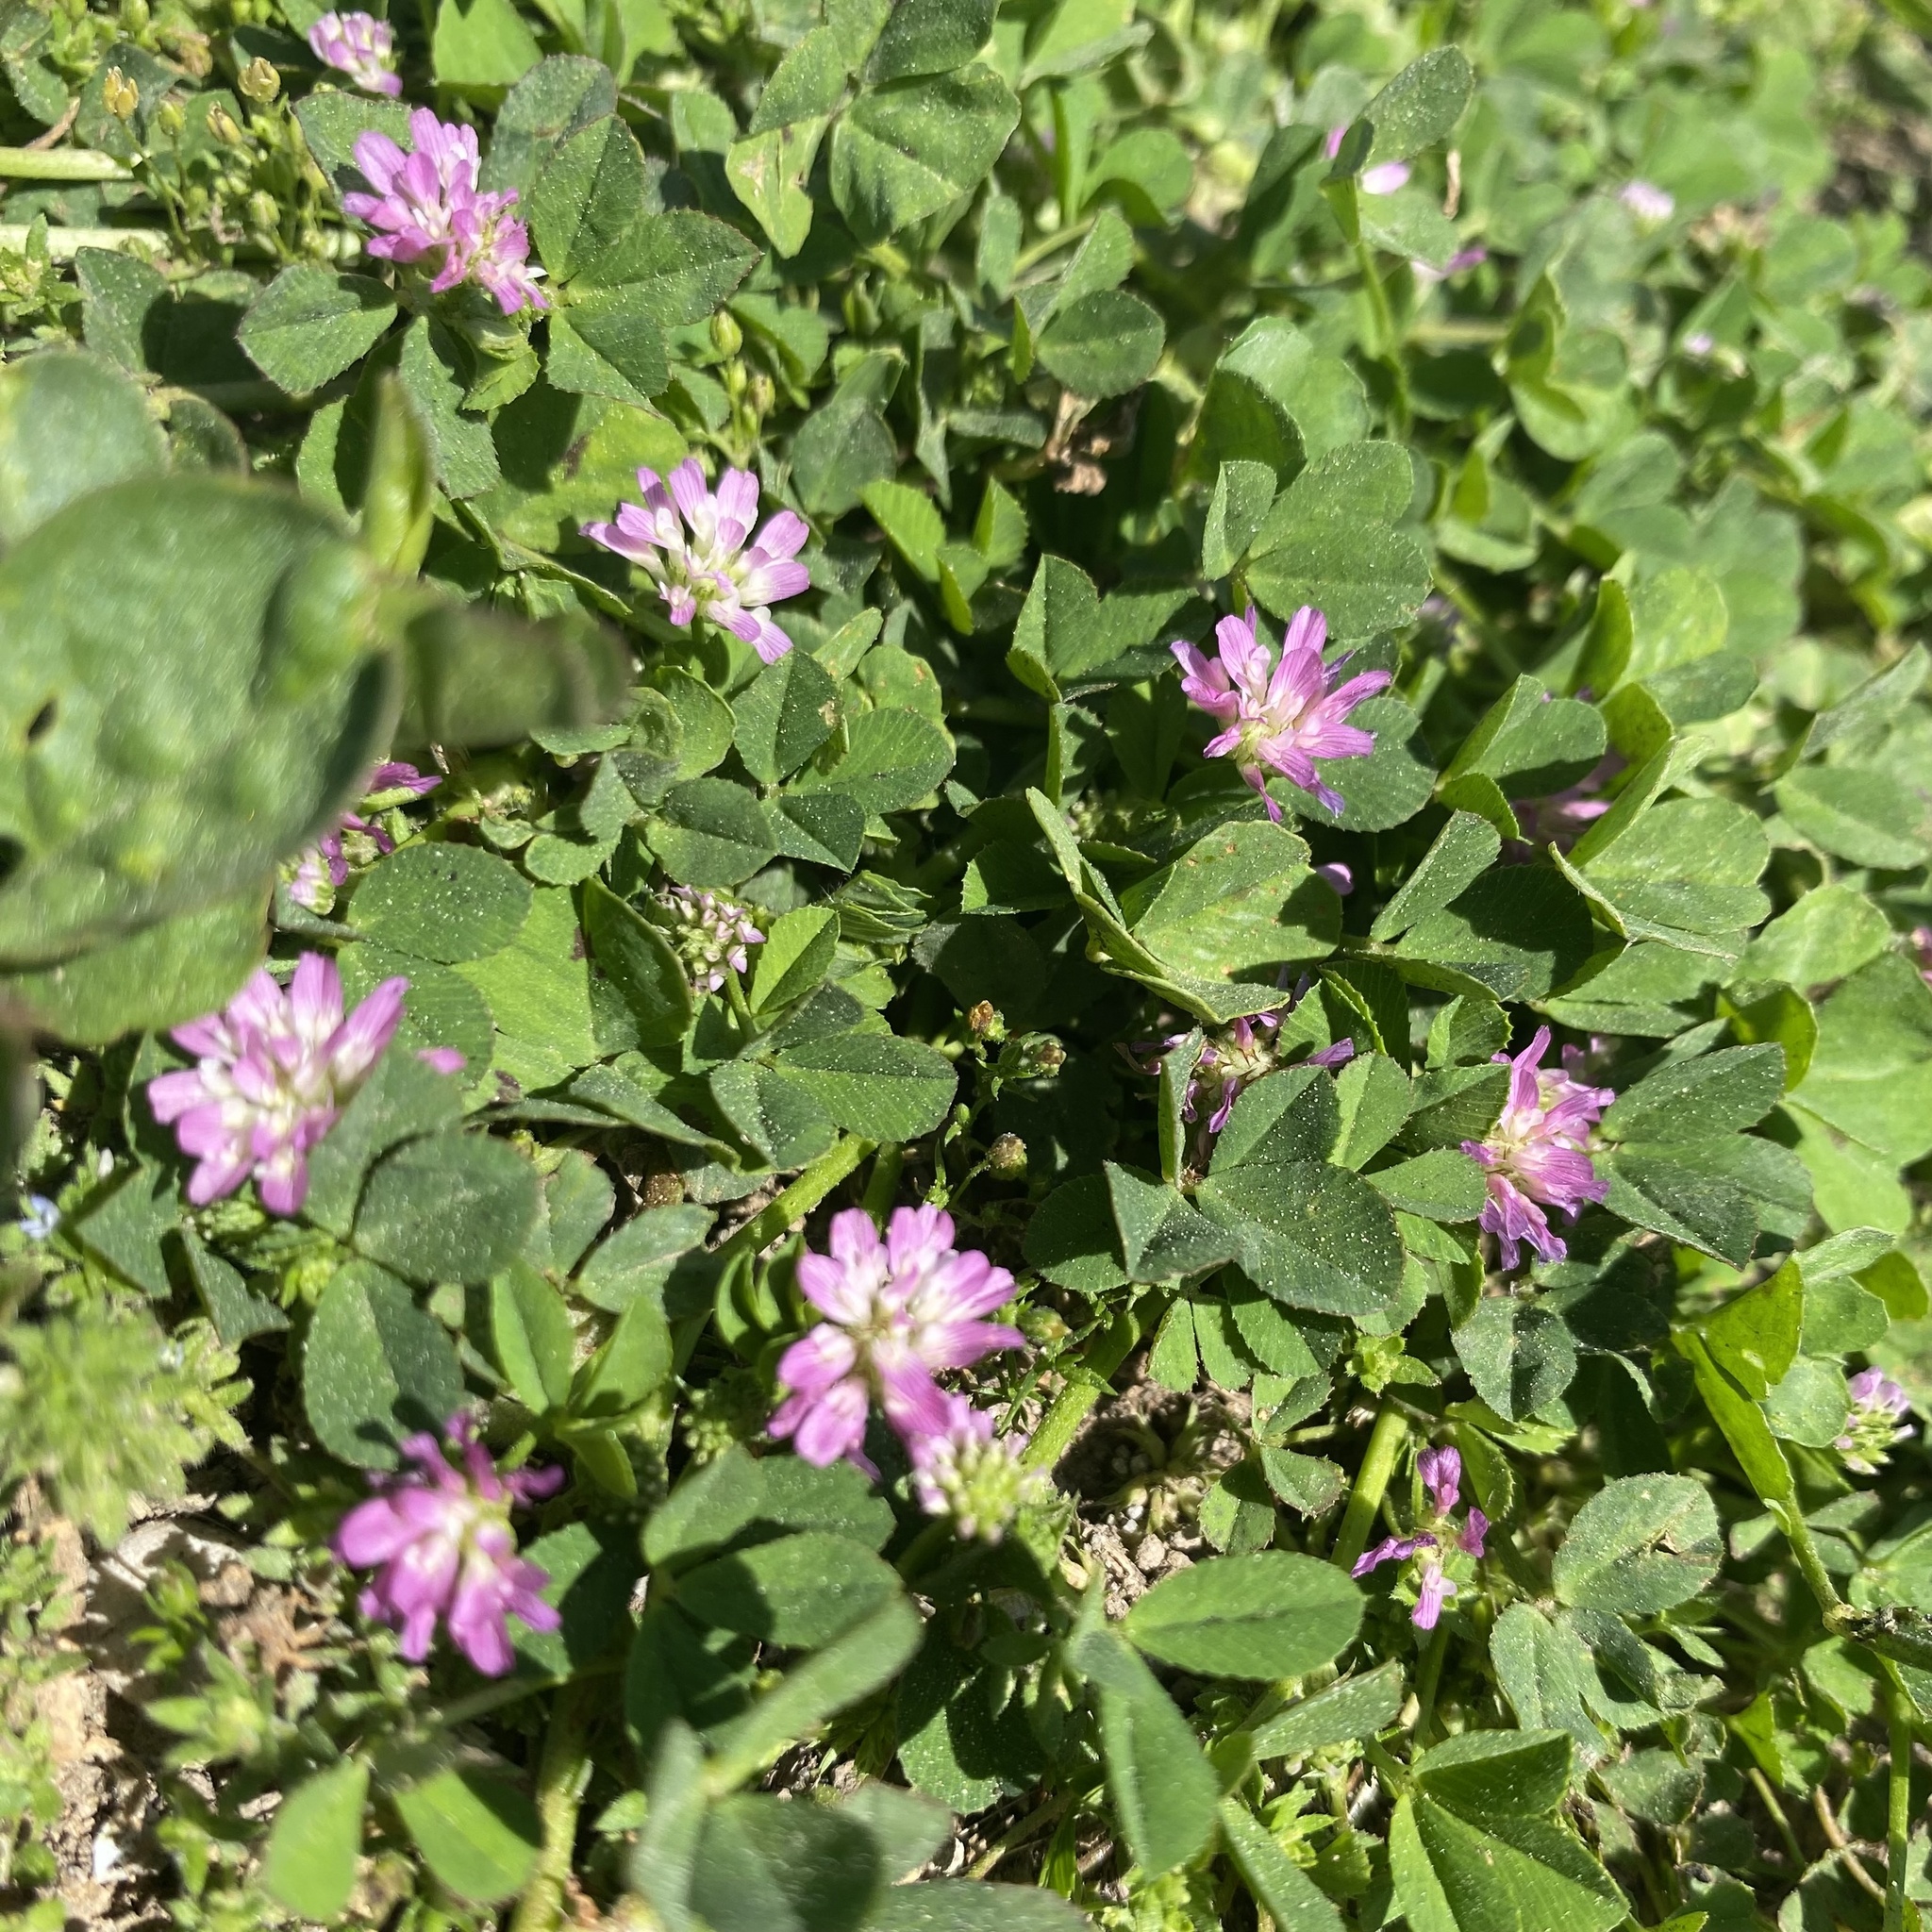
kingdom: Plantae
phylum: Tracheophyta
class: Magnoliopsida
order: Fabales
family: Fabaceae
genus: Trifolium
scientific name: Trifolium resupinatum
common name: Reversed clover
